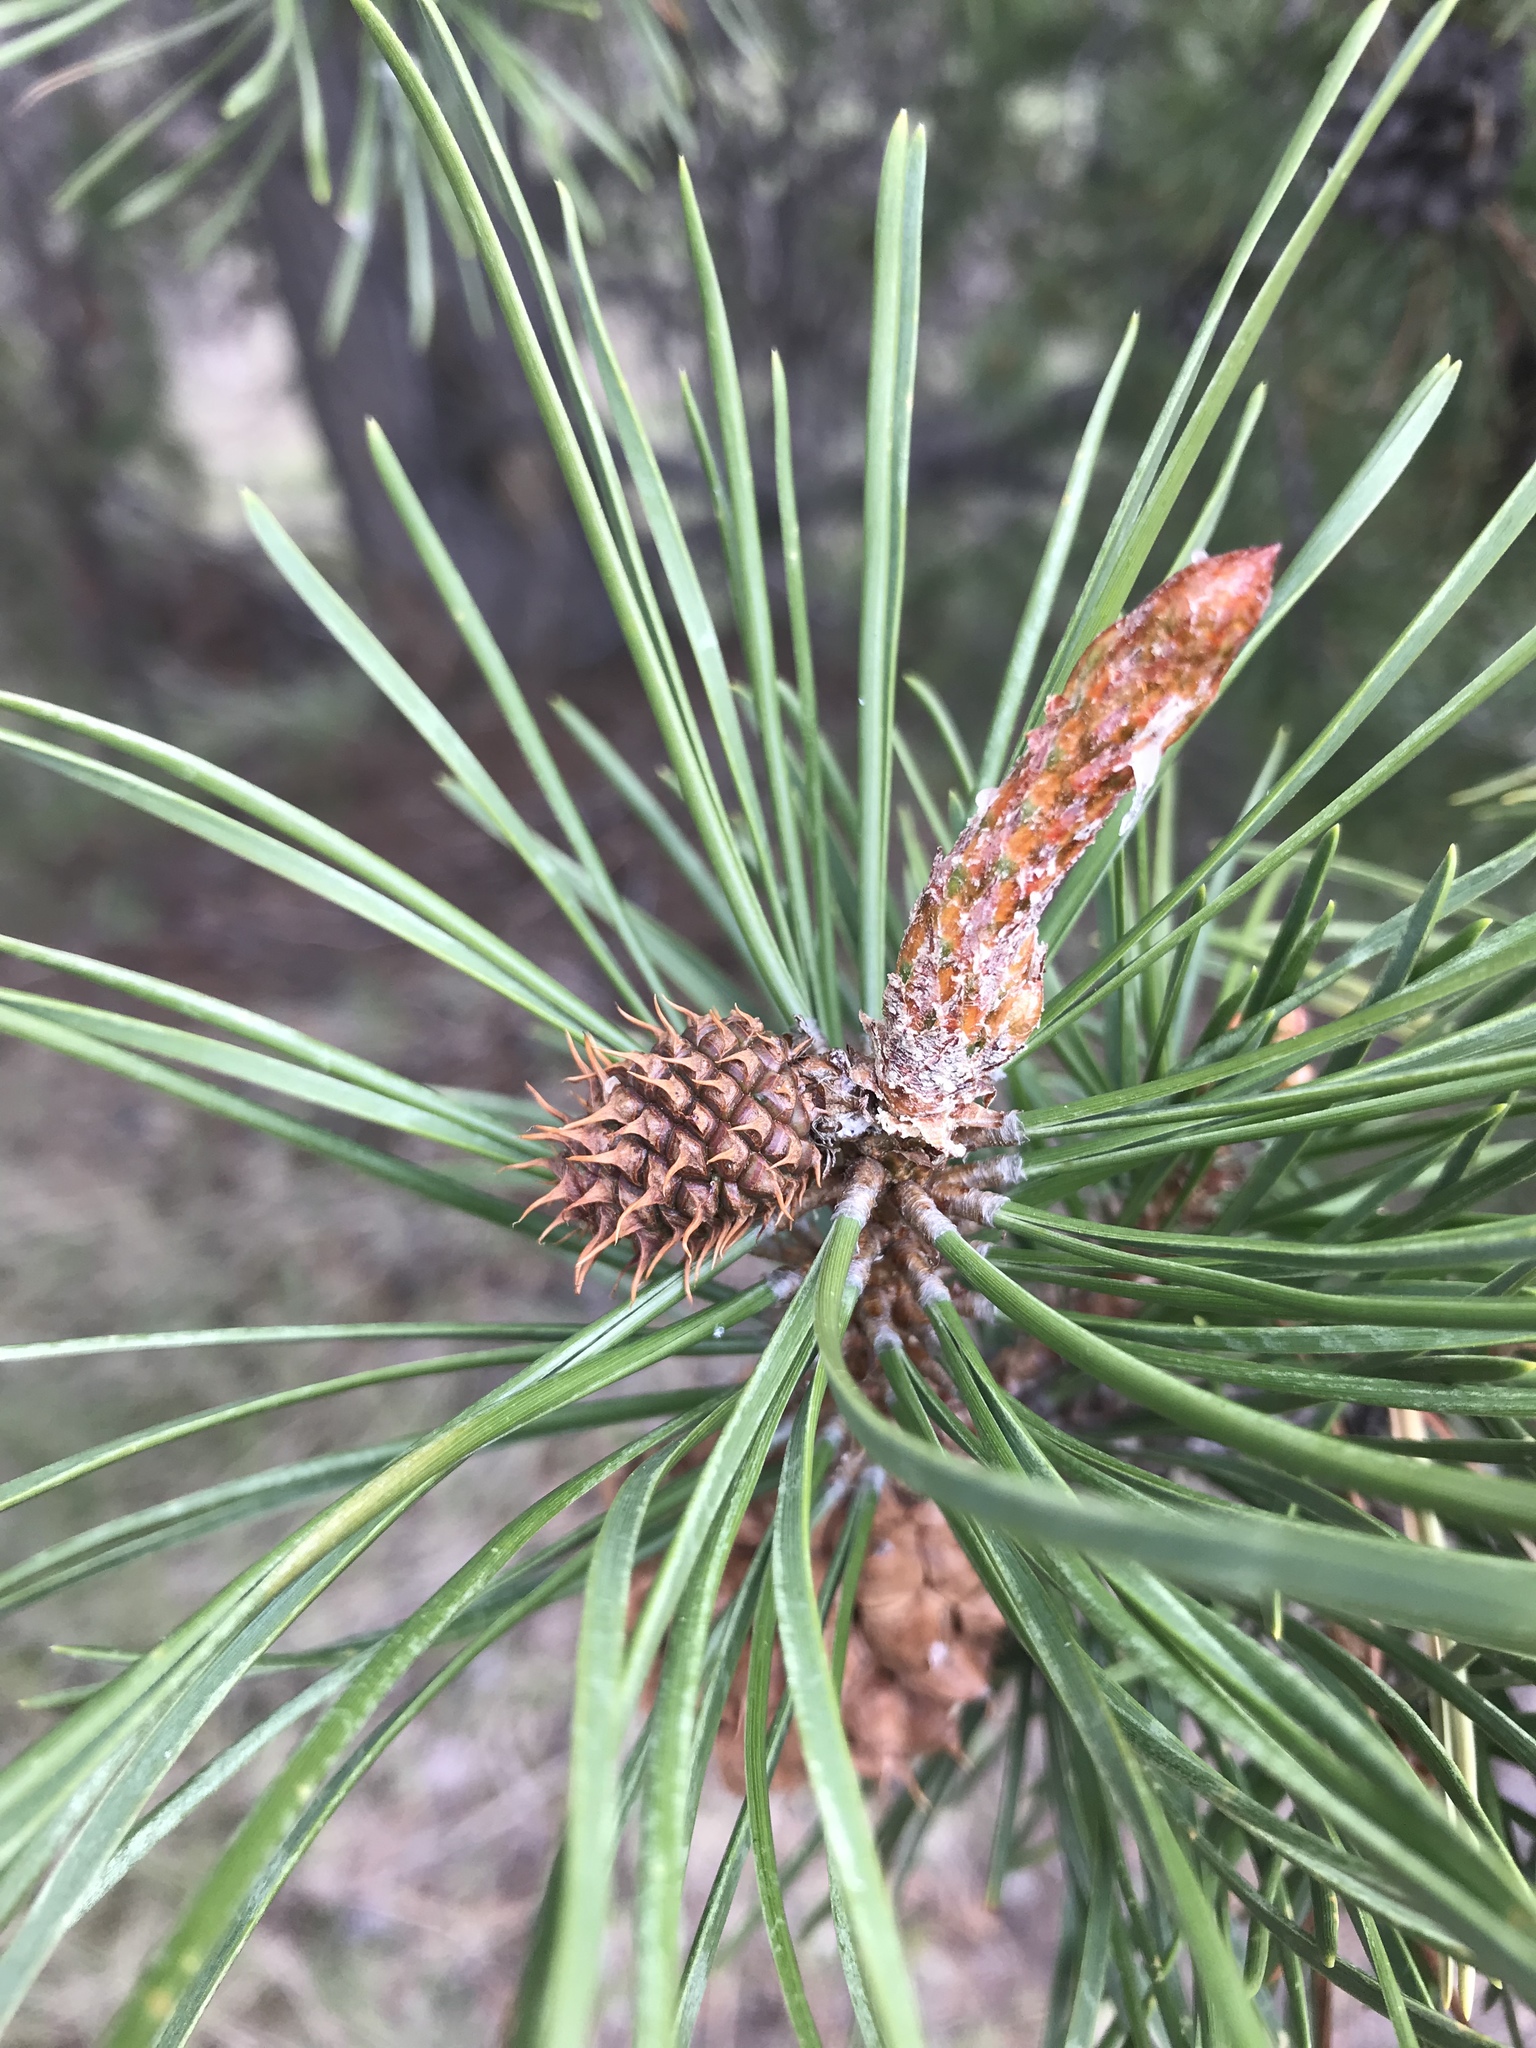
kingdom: Plantae
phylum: Tracheophyta
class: Pinopsida
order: Pinales
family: Pinaceae
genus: Pinus
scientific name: Pinus contorta
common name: Lodgepole pine
